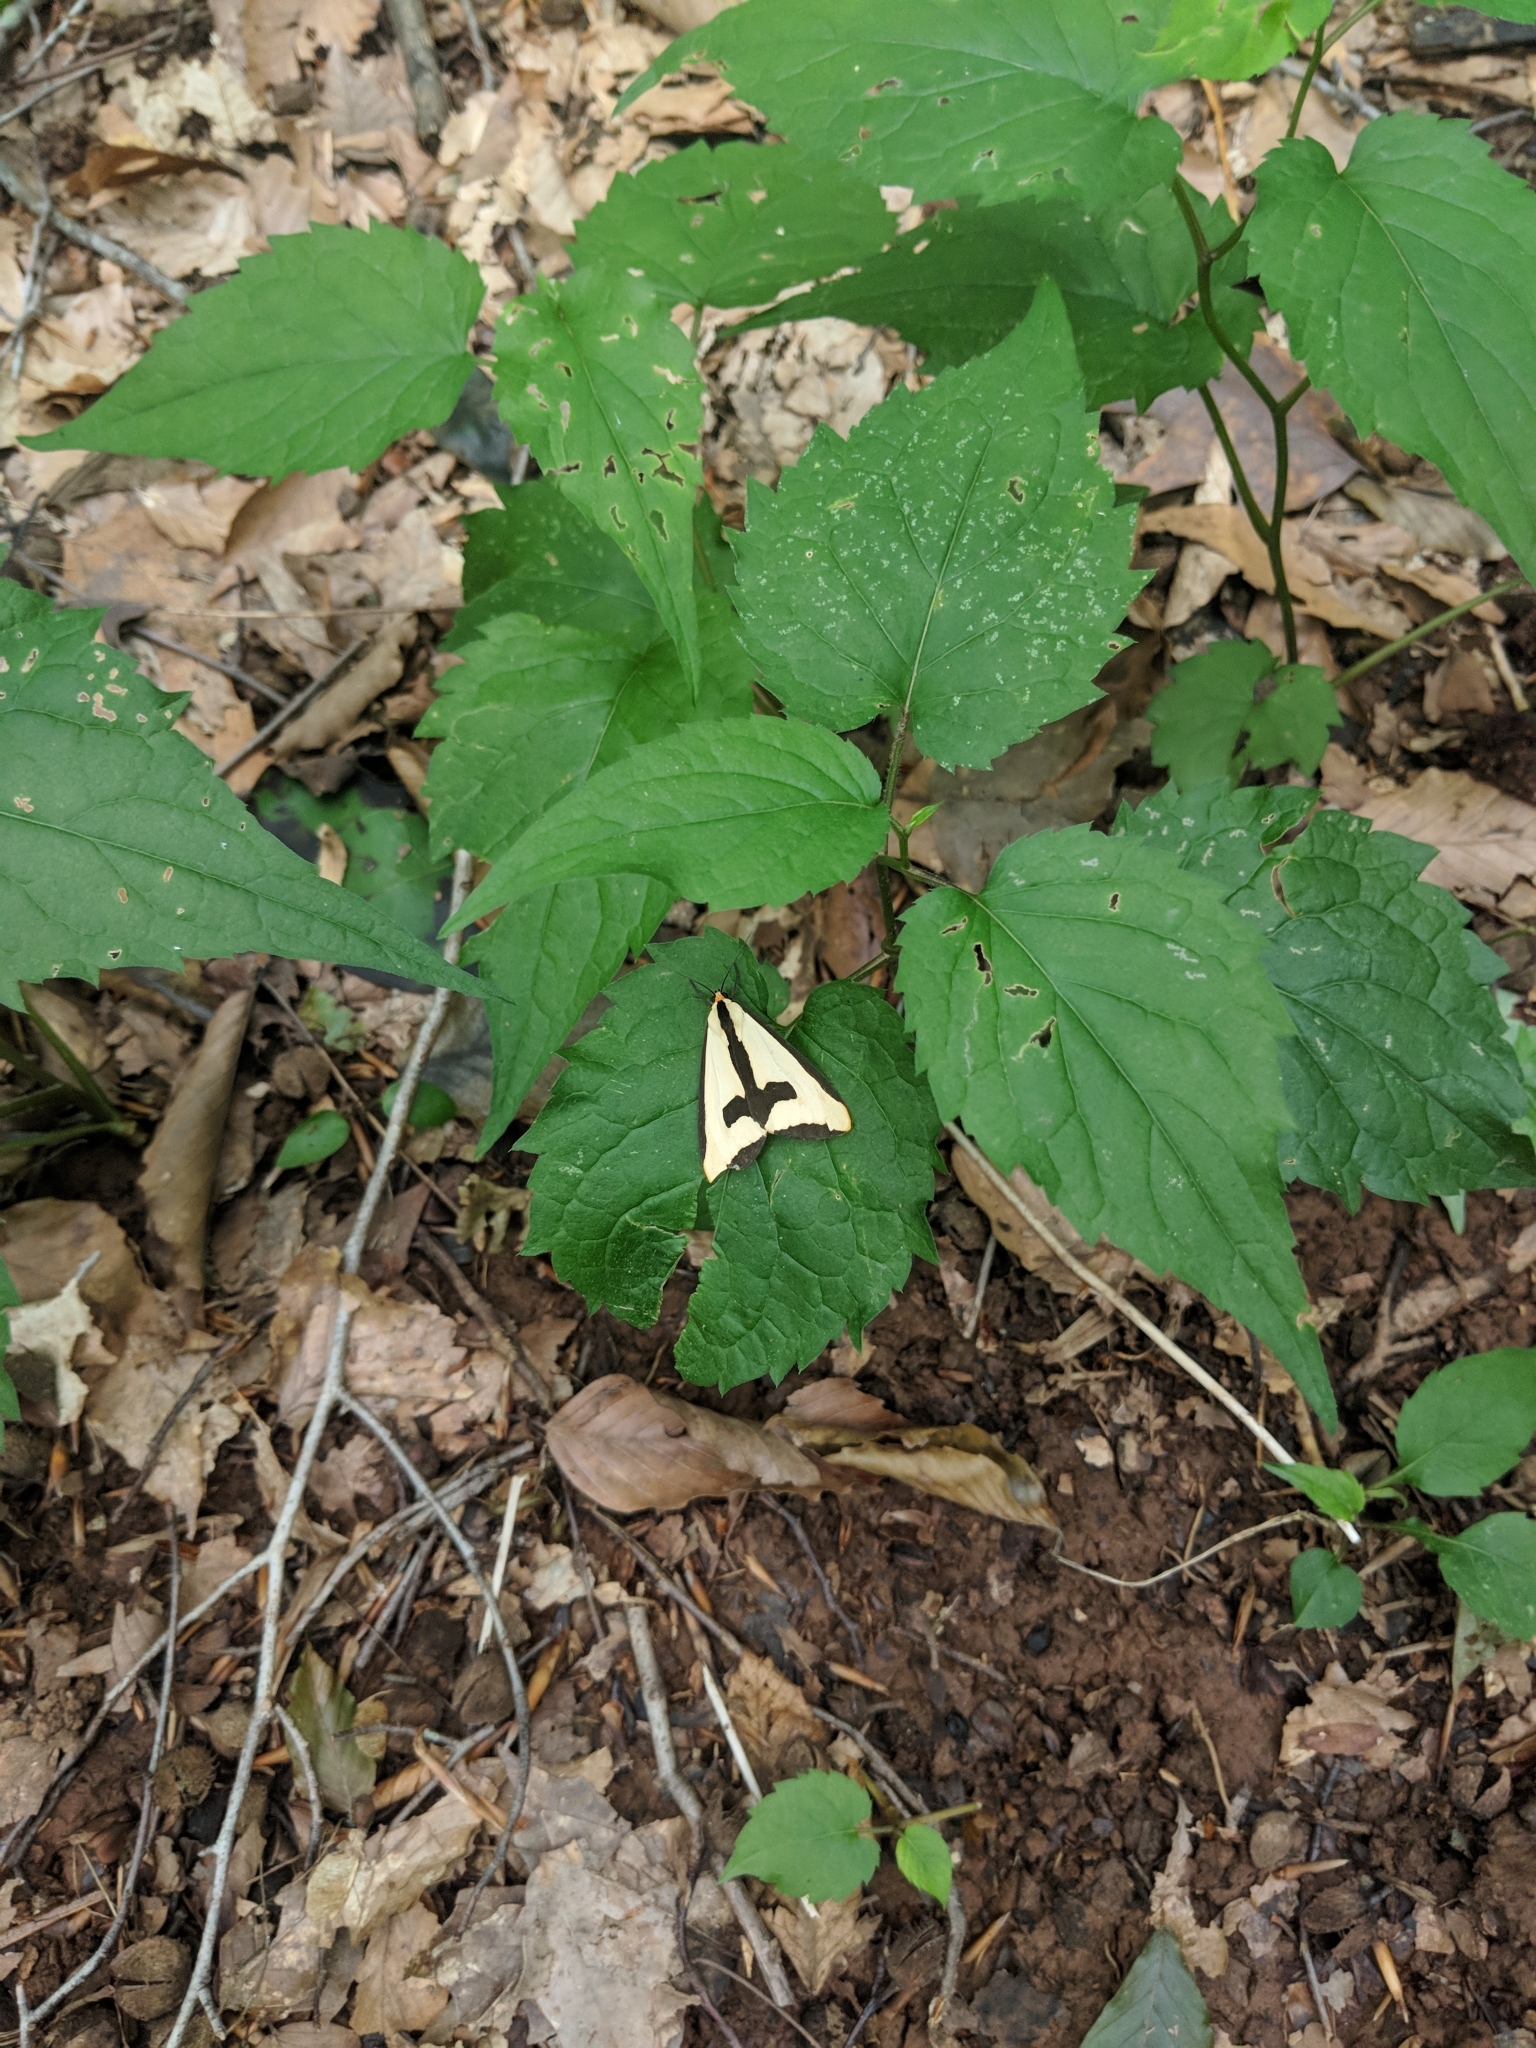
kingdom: Animalia
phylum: Arthropoda
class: Insecta
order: Lepidoptera
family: Erebidae
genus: Haploa
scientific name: Haploa clymene
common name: Clymene moth
